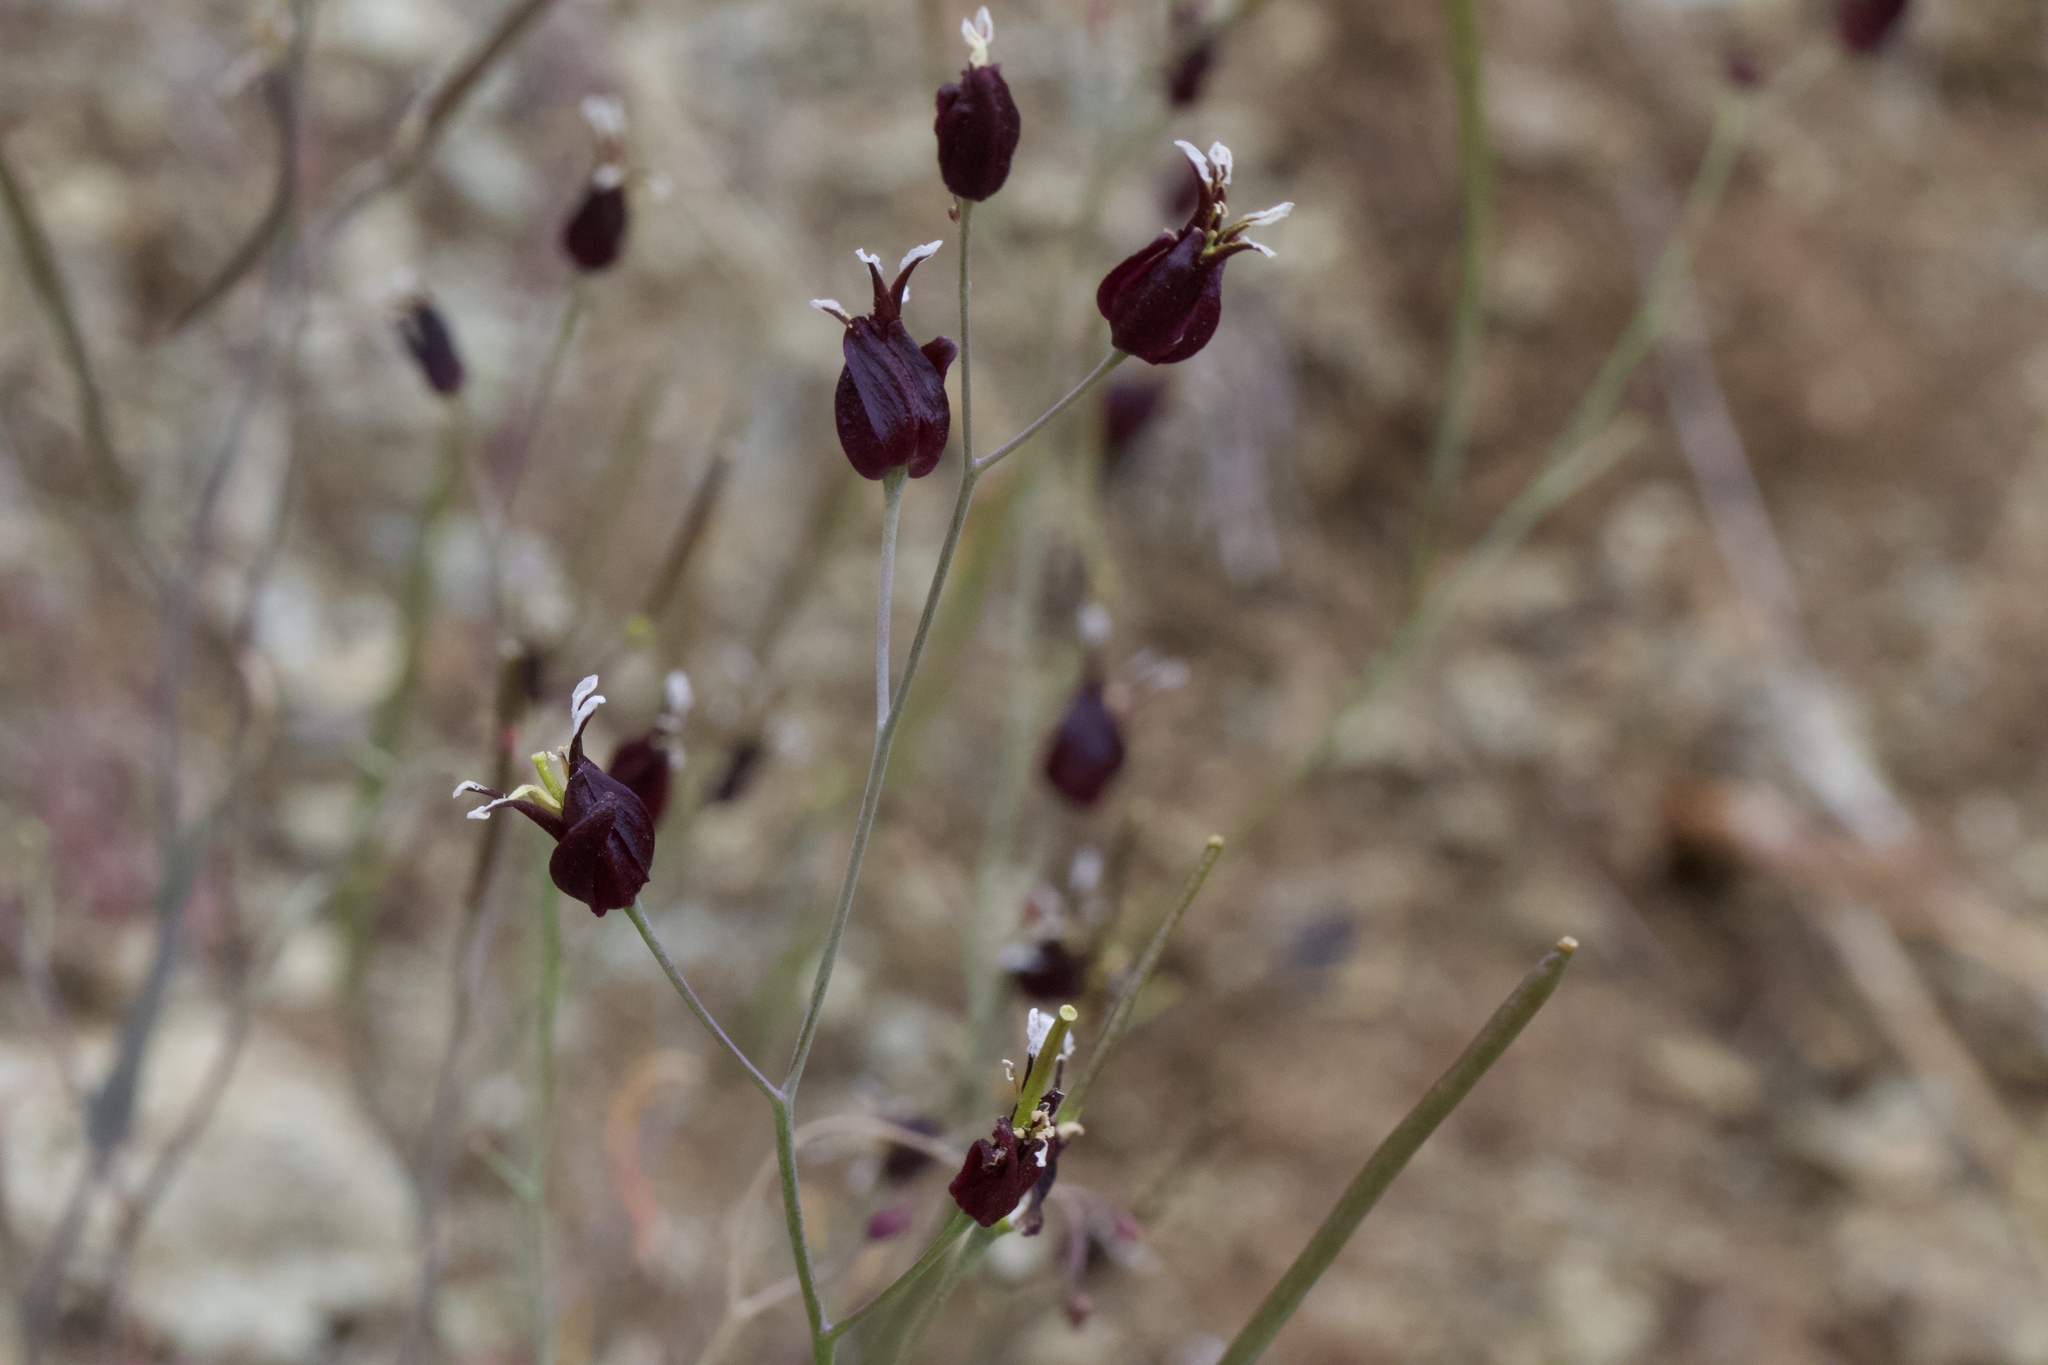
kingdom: Plantae
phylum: Tracheophyta
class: Magnoliopsida
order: Brassicales
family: Brassicaceae
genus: Streptanthus
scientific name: Streptanthus glandulosus
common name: Jewel-flower
